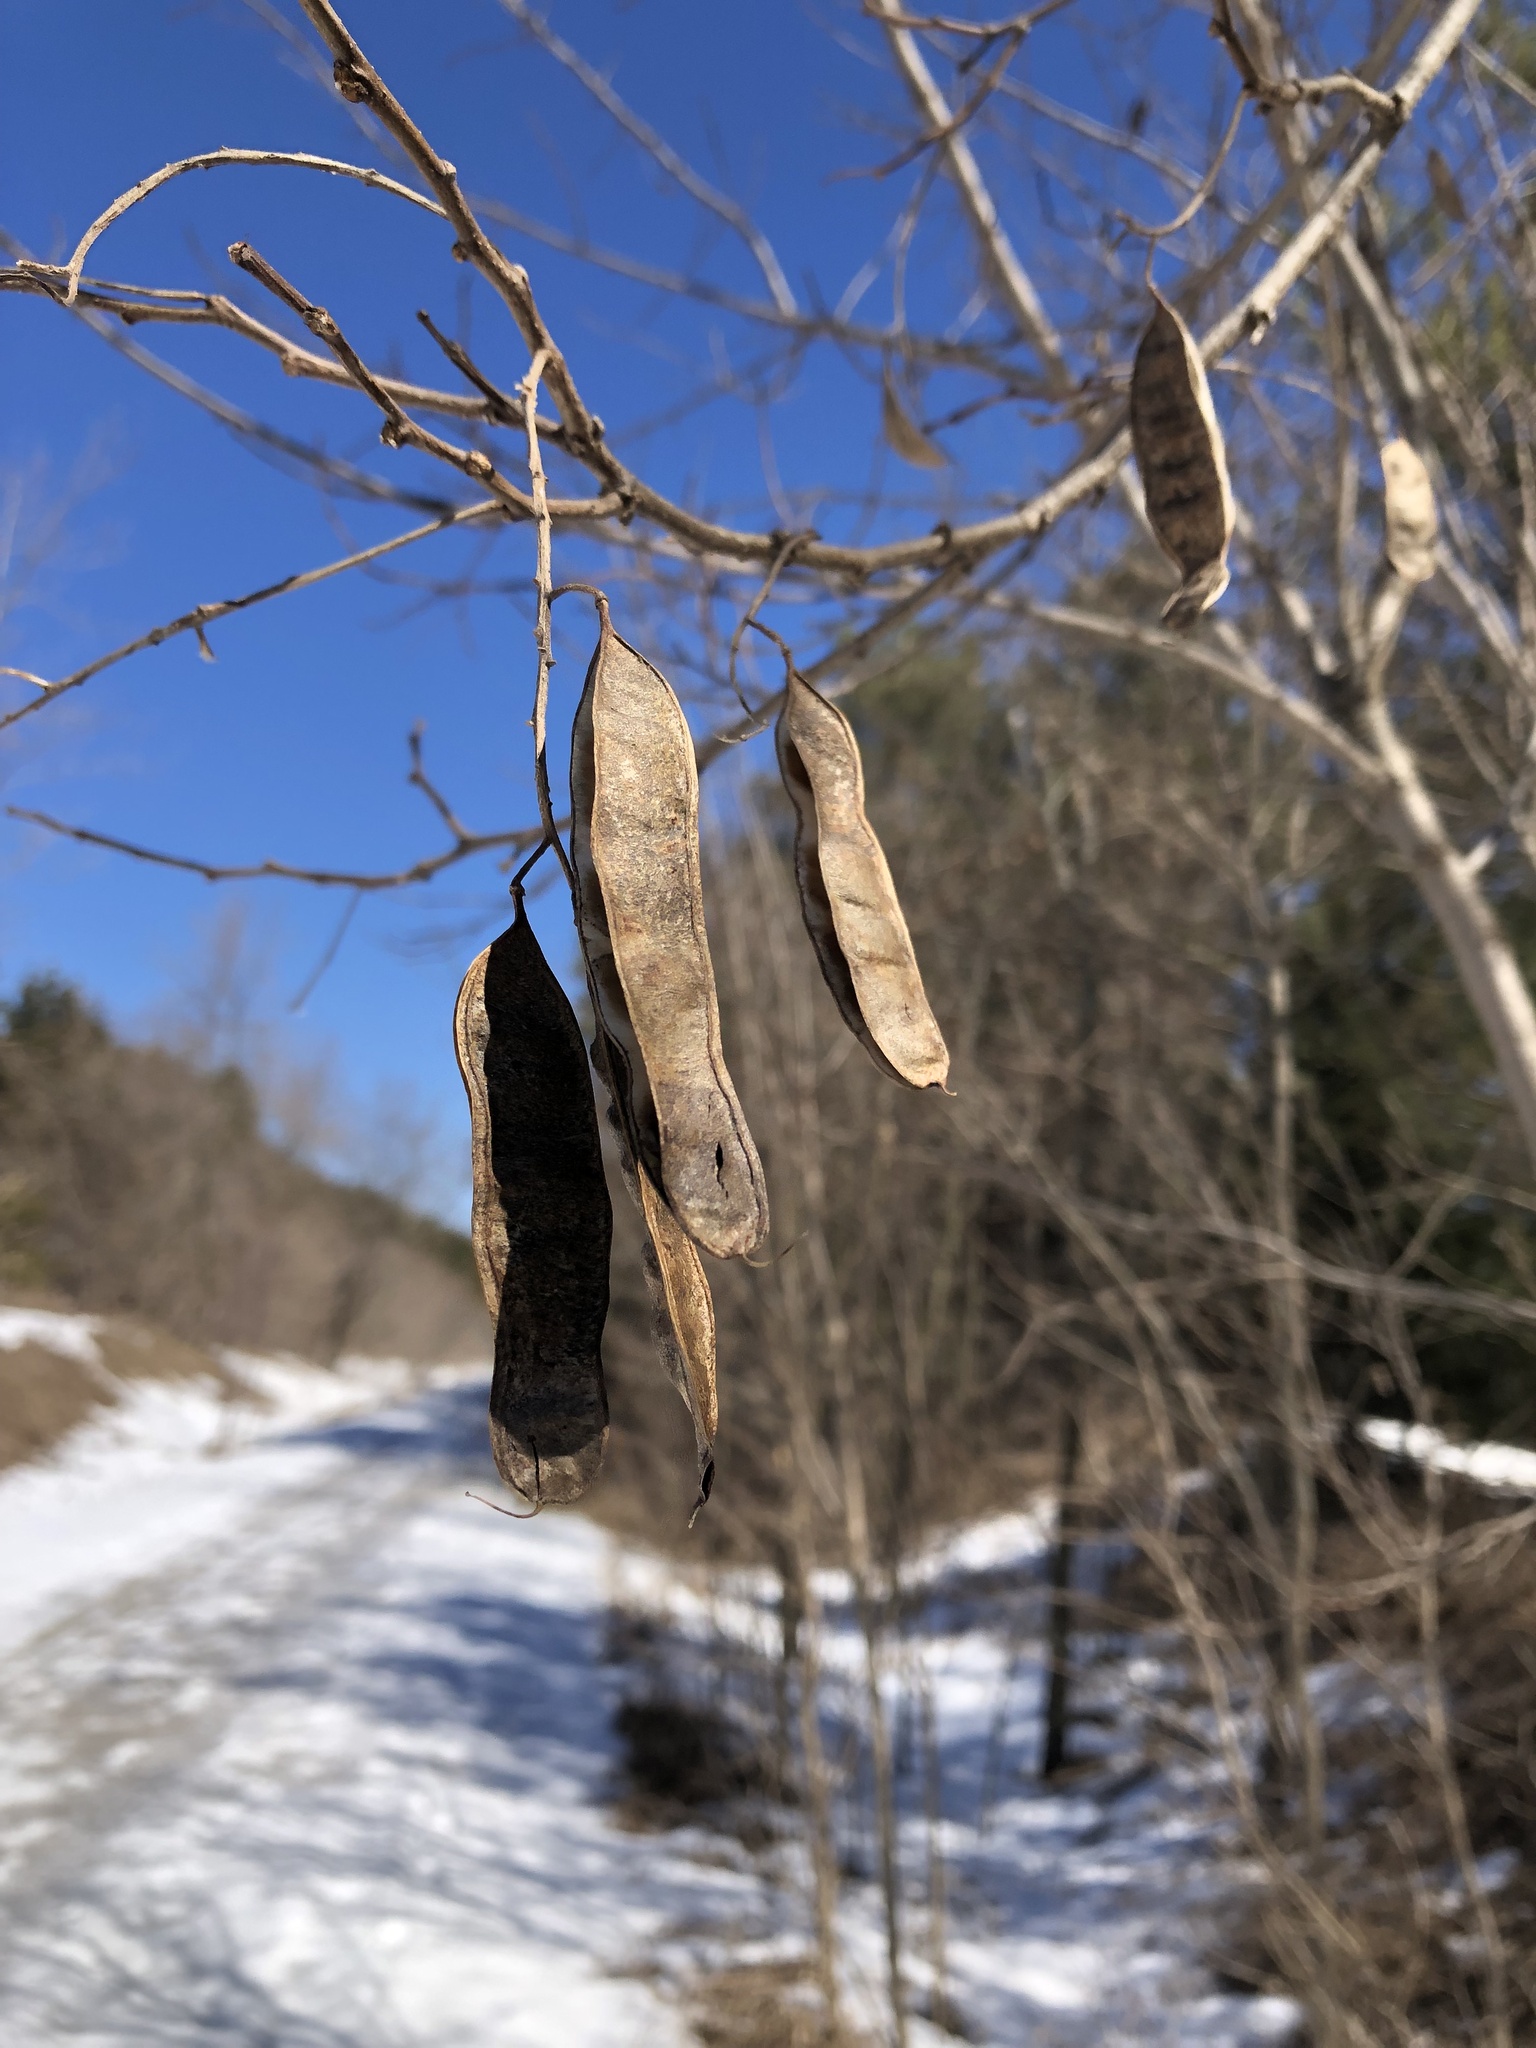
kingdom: Plantae
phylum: Tracheophyta
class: Magnoliopsida
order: Fabales
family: Fabaceae
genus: Robinia
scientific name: Robinia pseudoacacia
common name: Black locust
